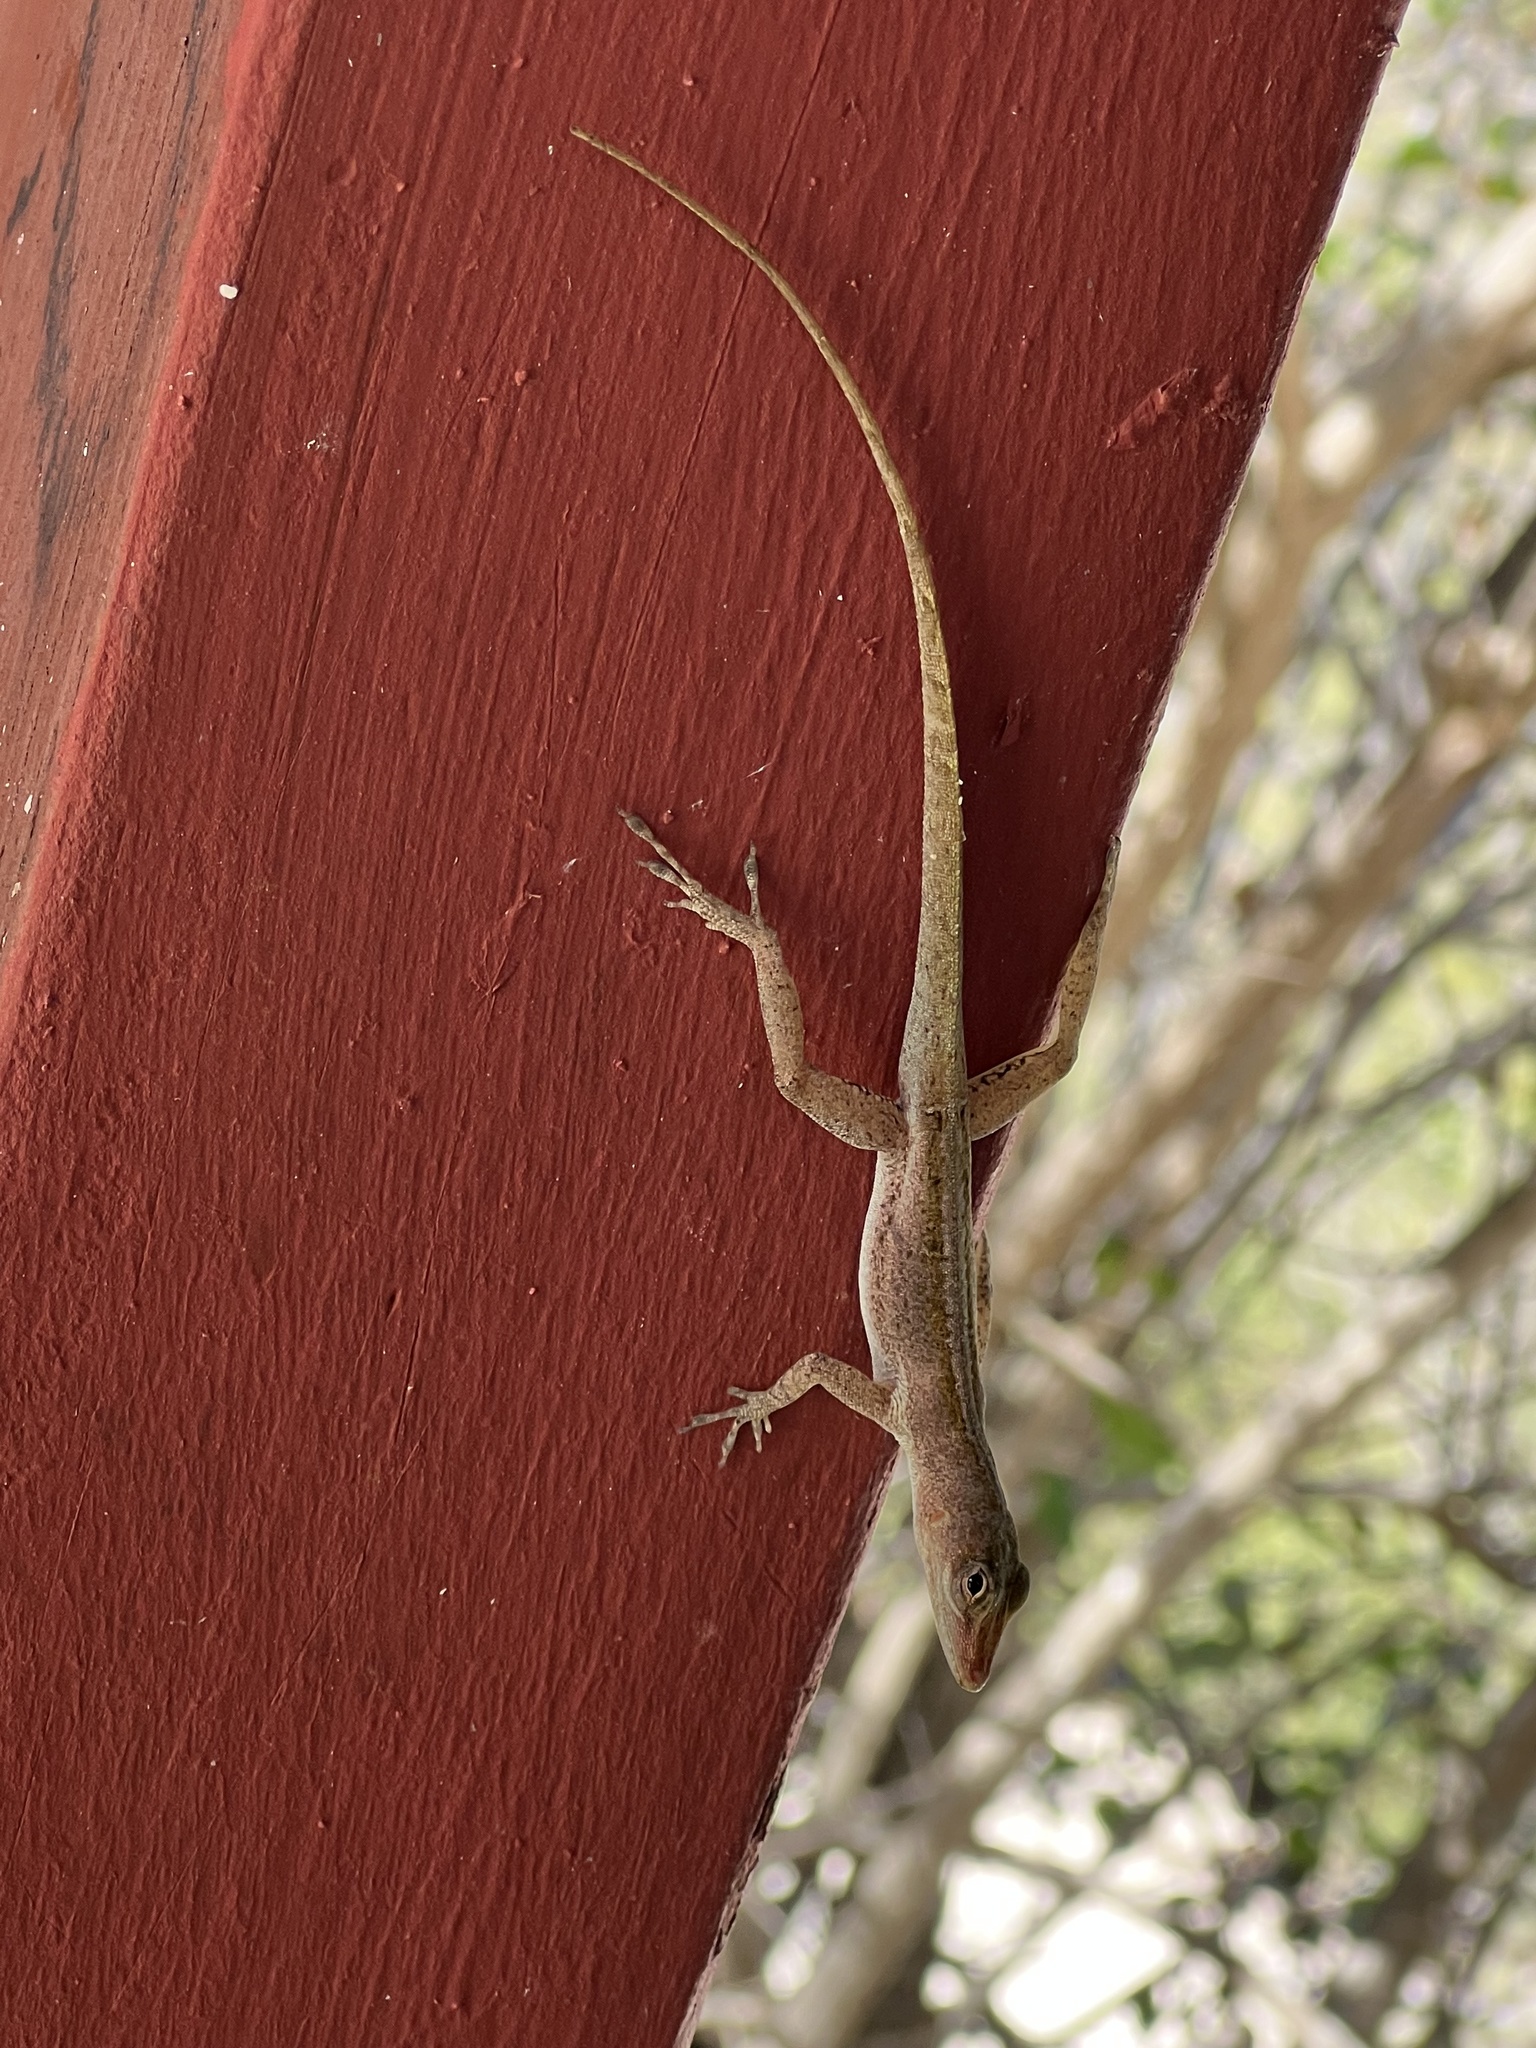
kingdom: Animalia
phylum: Chordata
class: Squamata
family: Dactyloidae
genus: Anolis
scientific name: Anolis acutus
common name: Saint croix's anole
